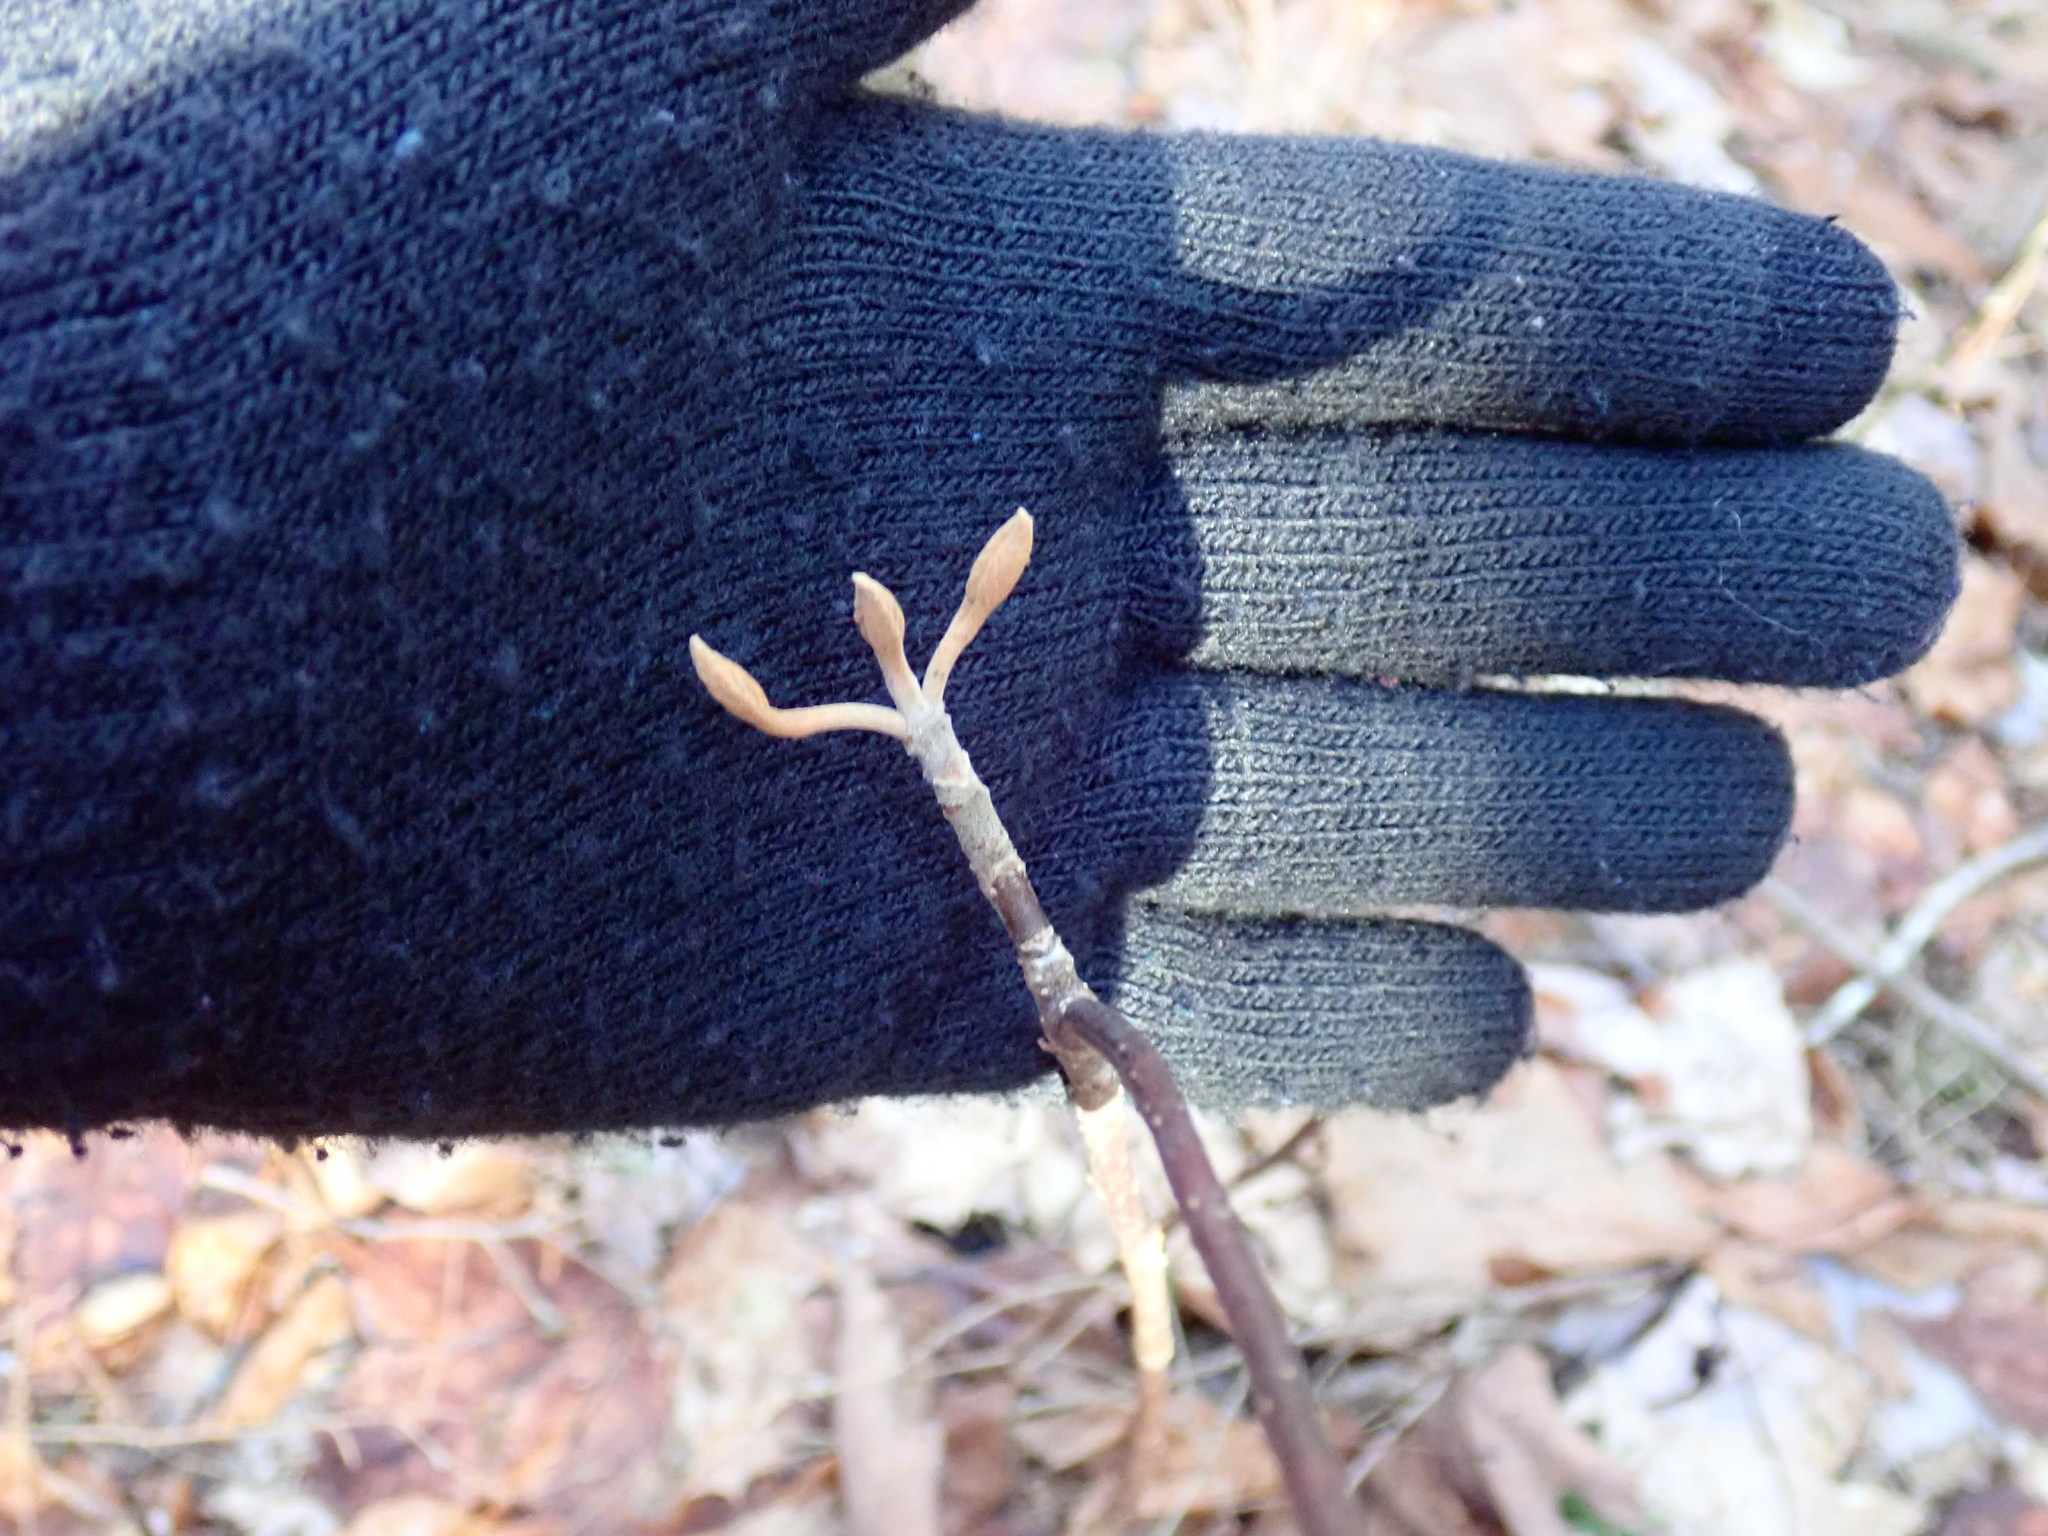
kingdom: Plantae
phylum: Tracheophyta
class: Magnoliopsida
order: Dipsacales
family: Viburnaceae
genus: Viburnum
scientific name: Viburnum lantanoides
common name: Hobblebush
